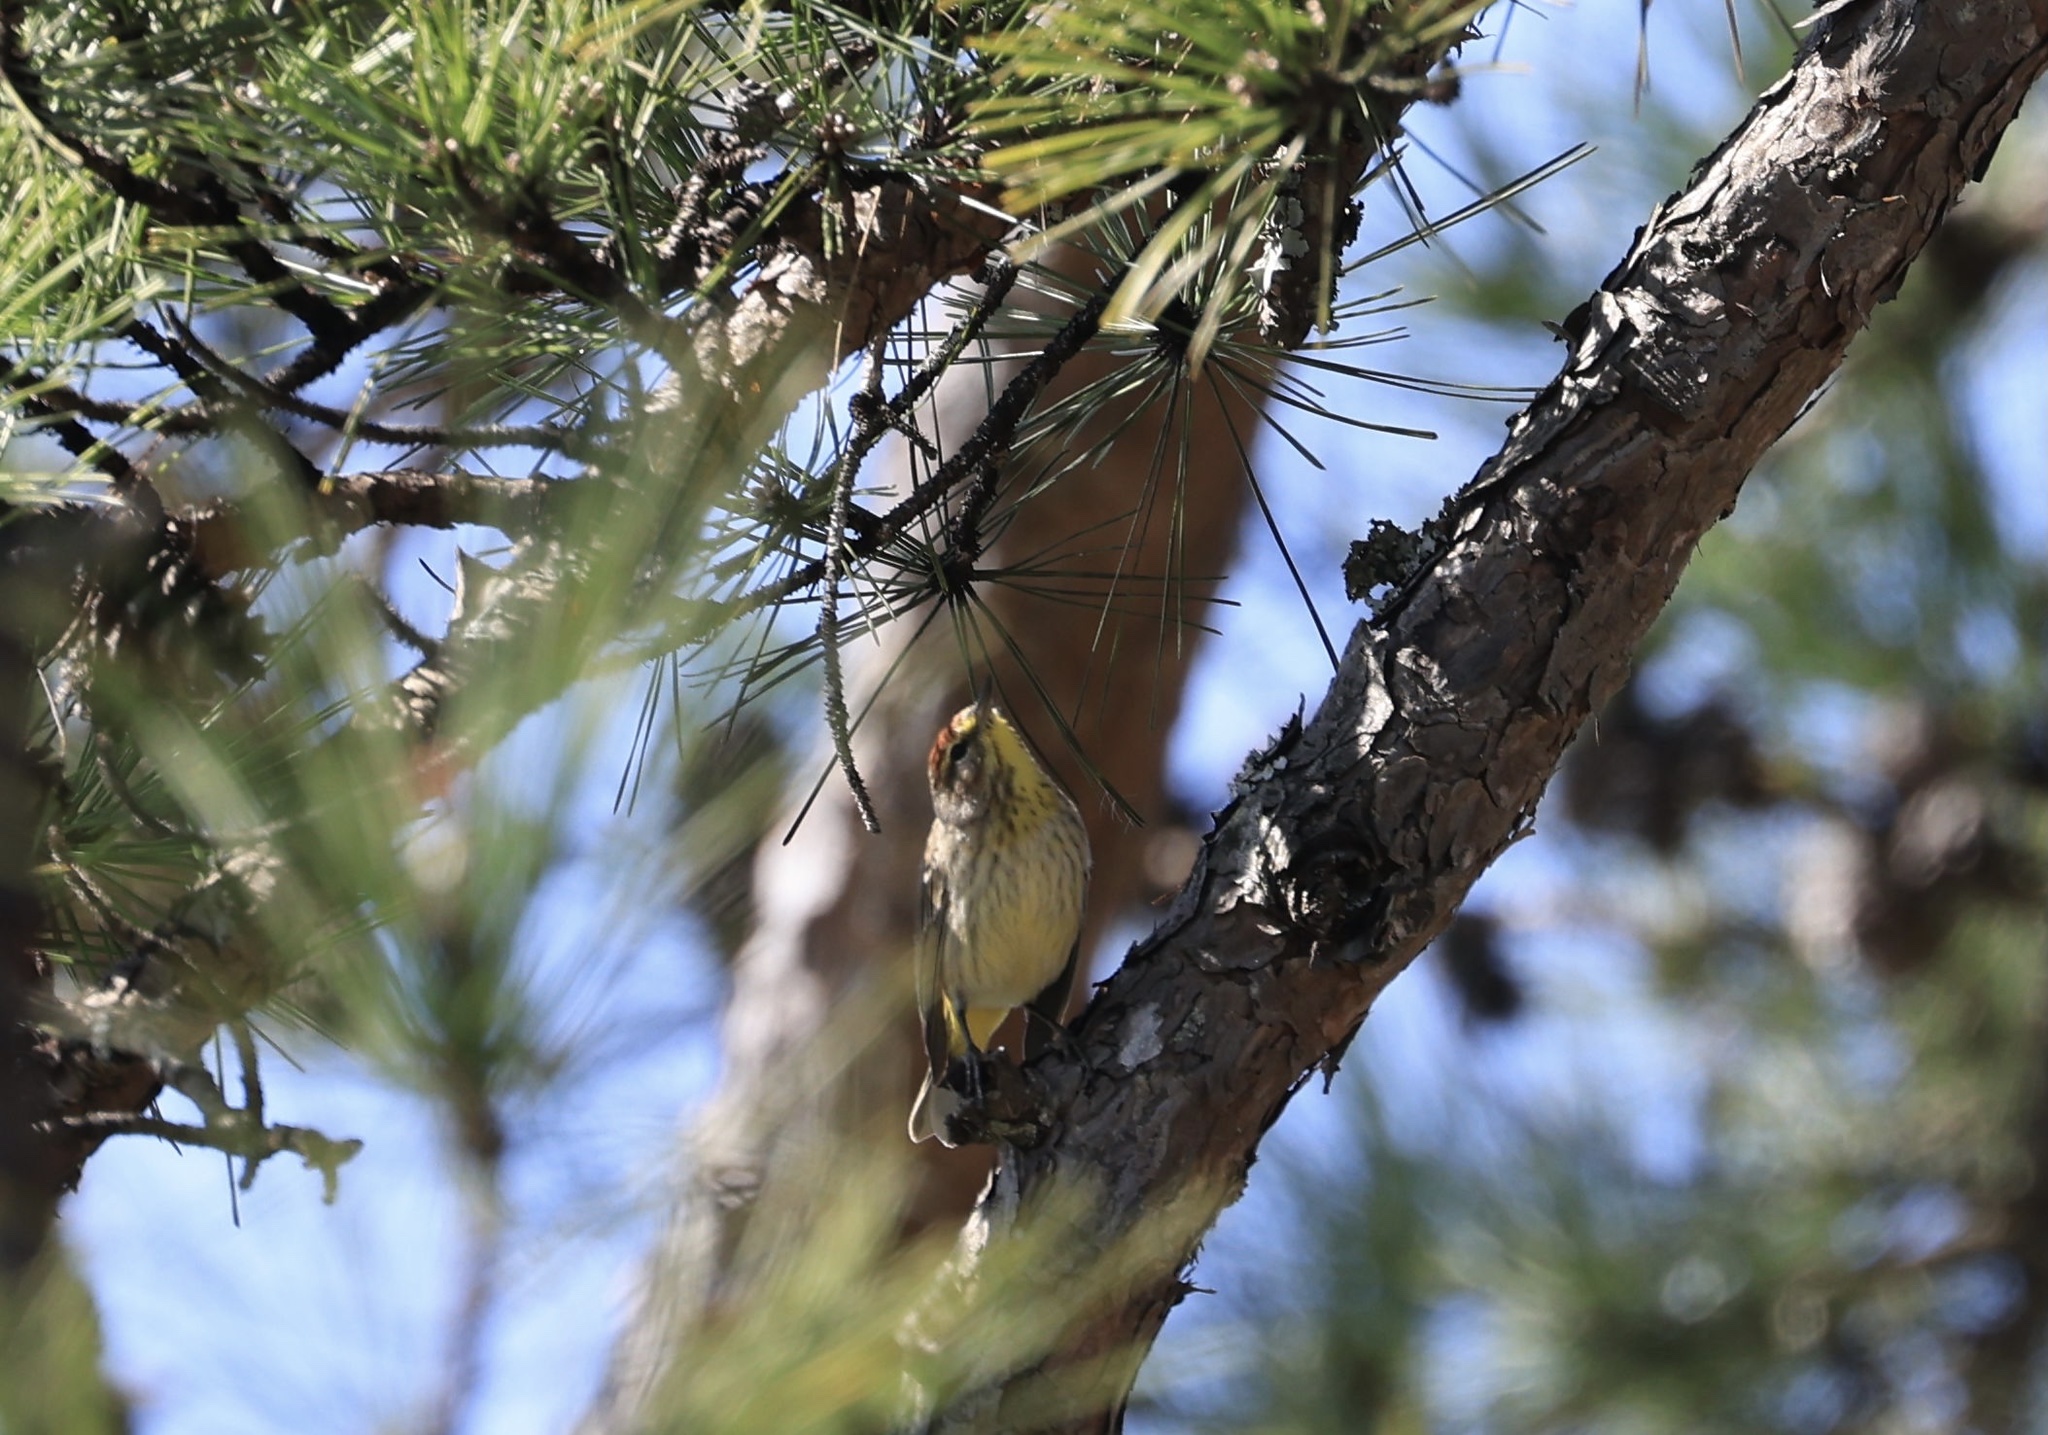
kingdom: Animalia
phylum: Chordata
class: Aves
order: Passeriformes
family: Parulidae
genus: Setophaga
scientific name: Setophaga palmarum
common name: Palm warbler
